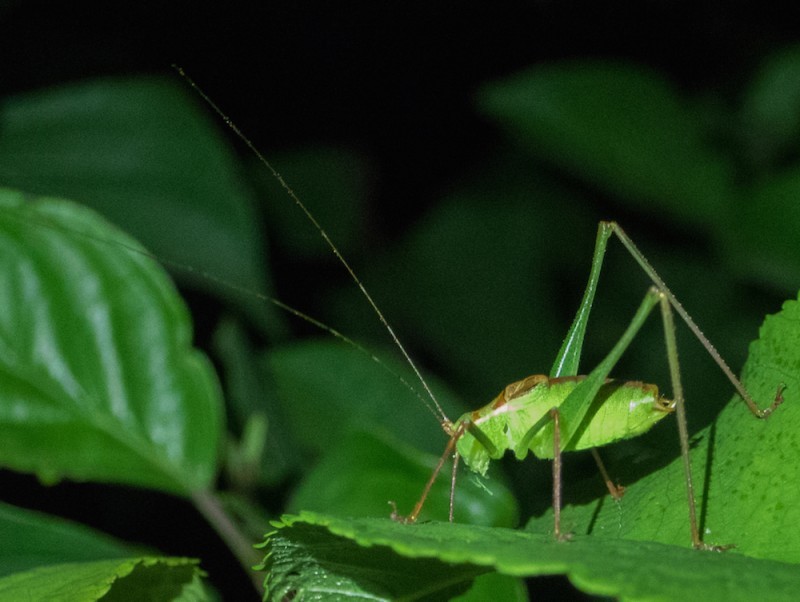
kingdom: Animalia
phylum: Arthropoda
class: Insecta
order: Orthoptera
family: Tettigoniidae
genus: Leptophyes
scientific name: Leptophyes punctatissima
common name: Speckled bush-cricket
